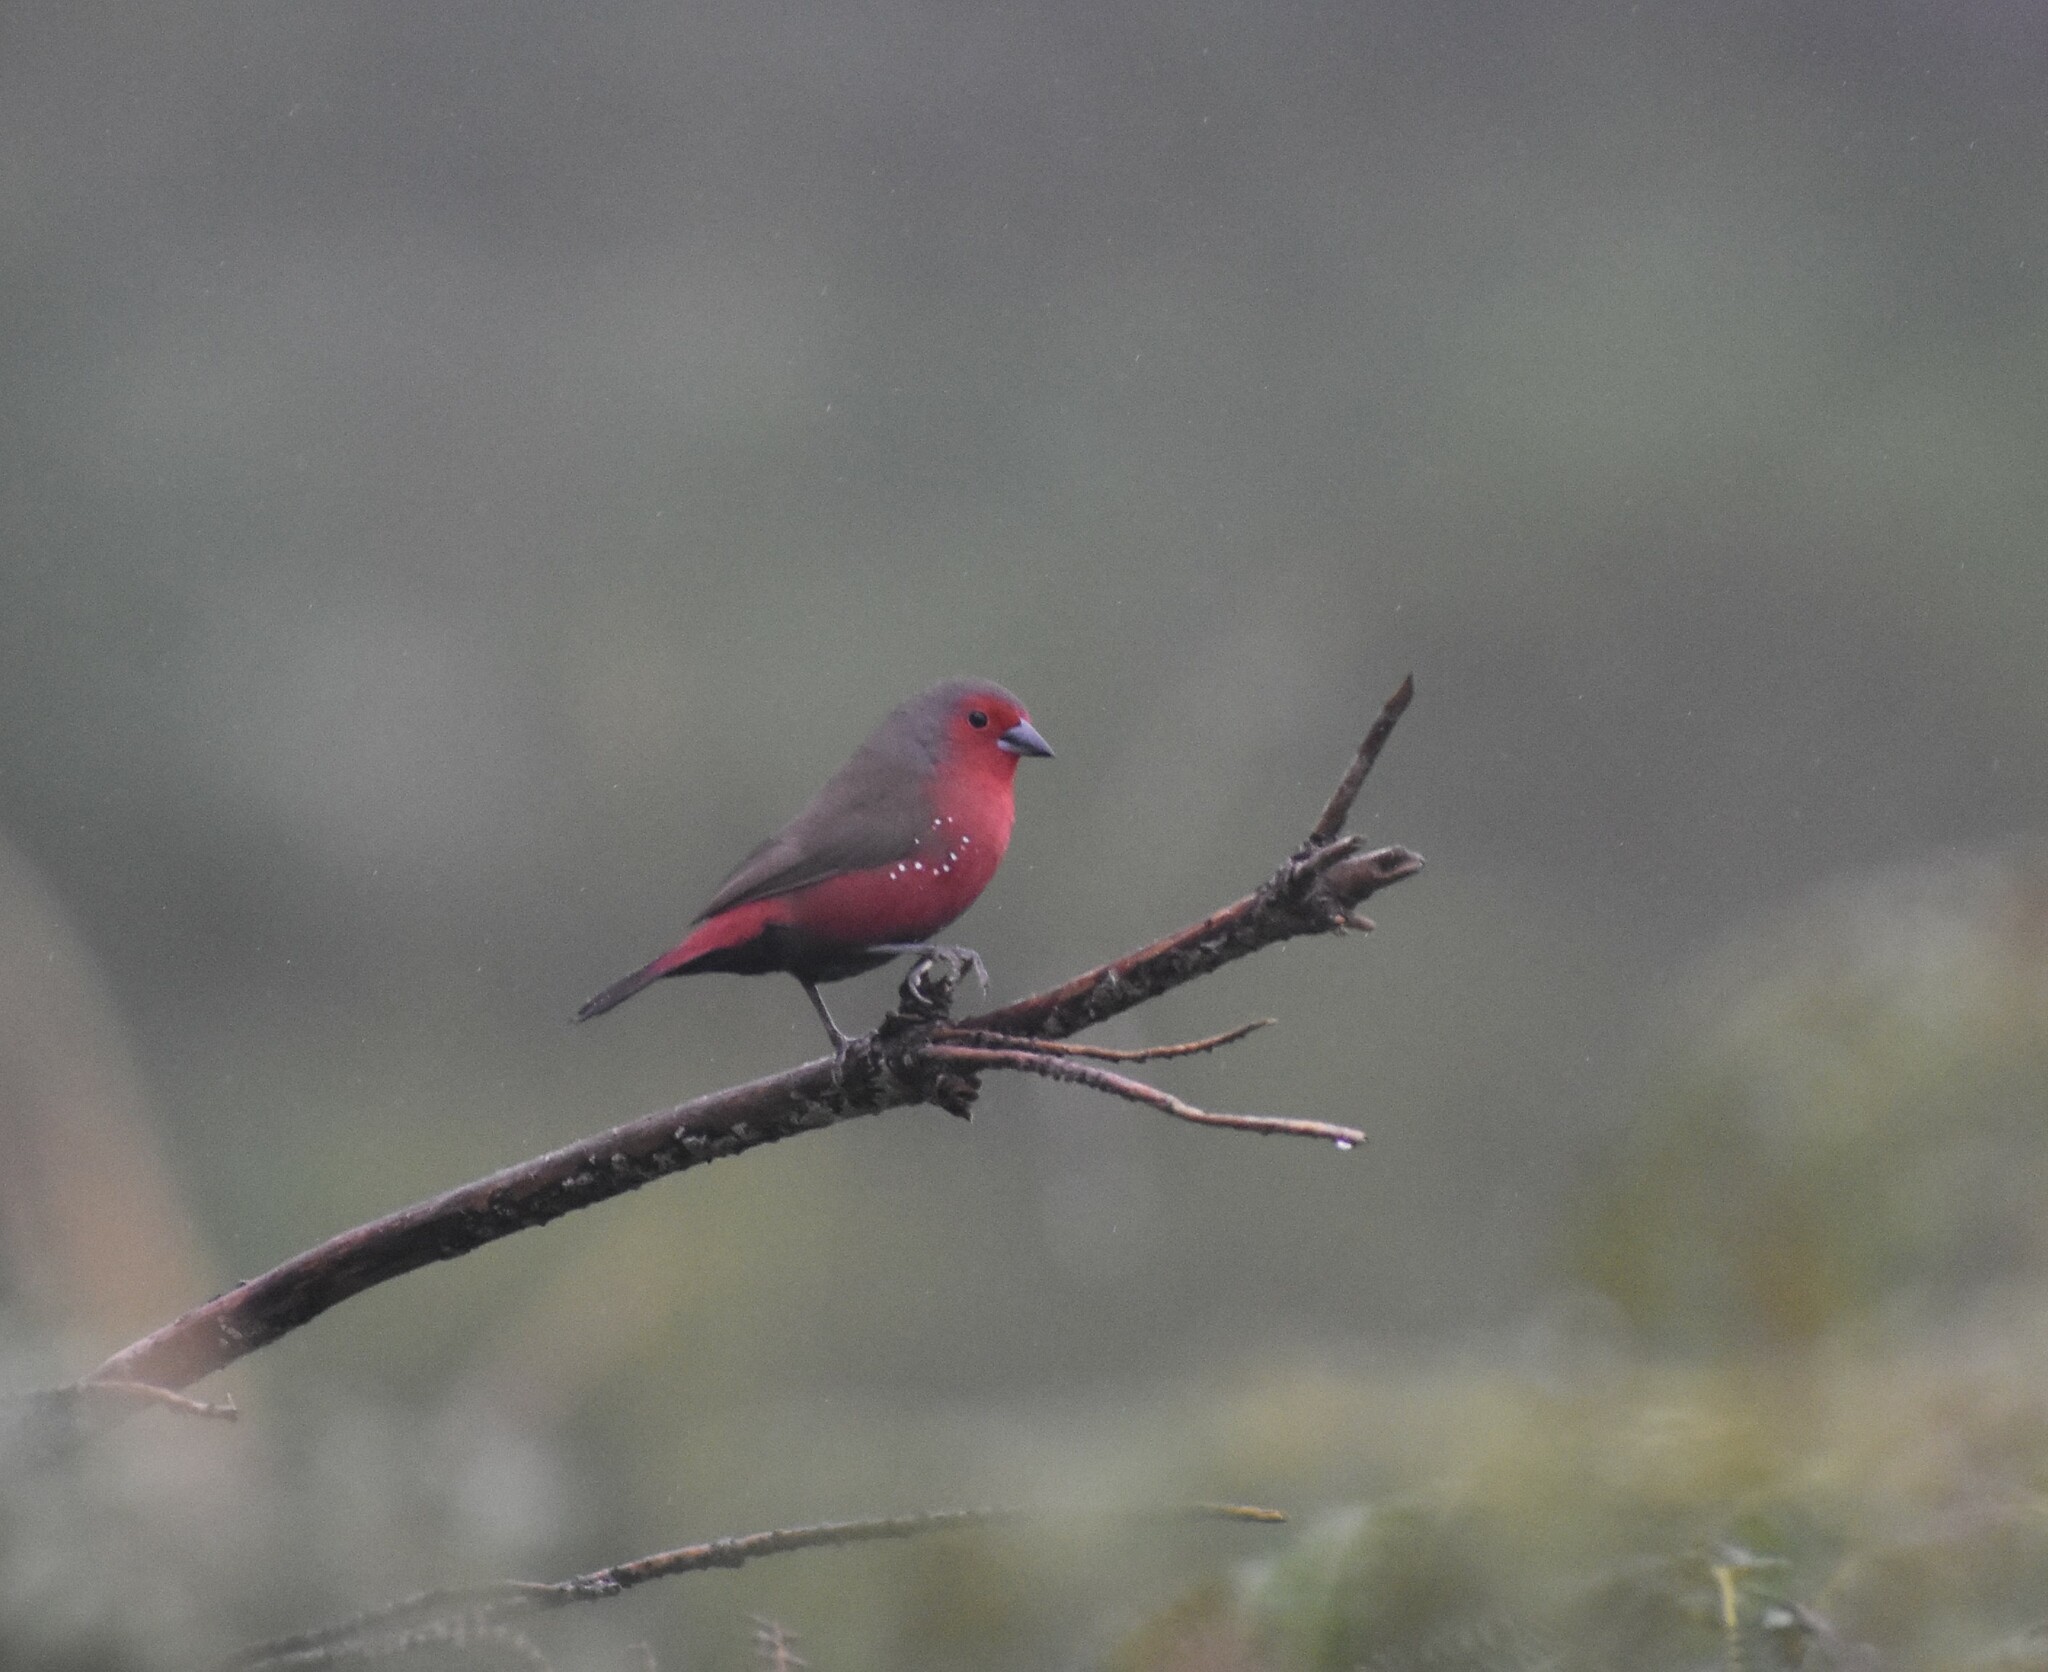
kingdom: Animalia
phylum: Chordata
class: Aves
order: Passeriformes
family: Estrildidae
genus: Lagonosticta
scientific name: Lagonosticta rubricata
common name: African firefinch
